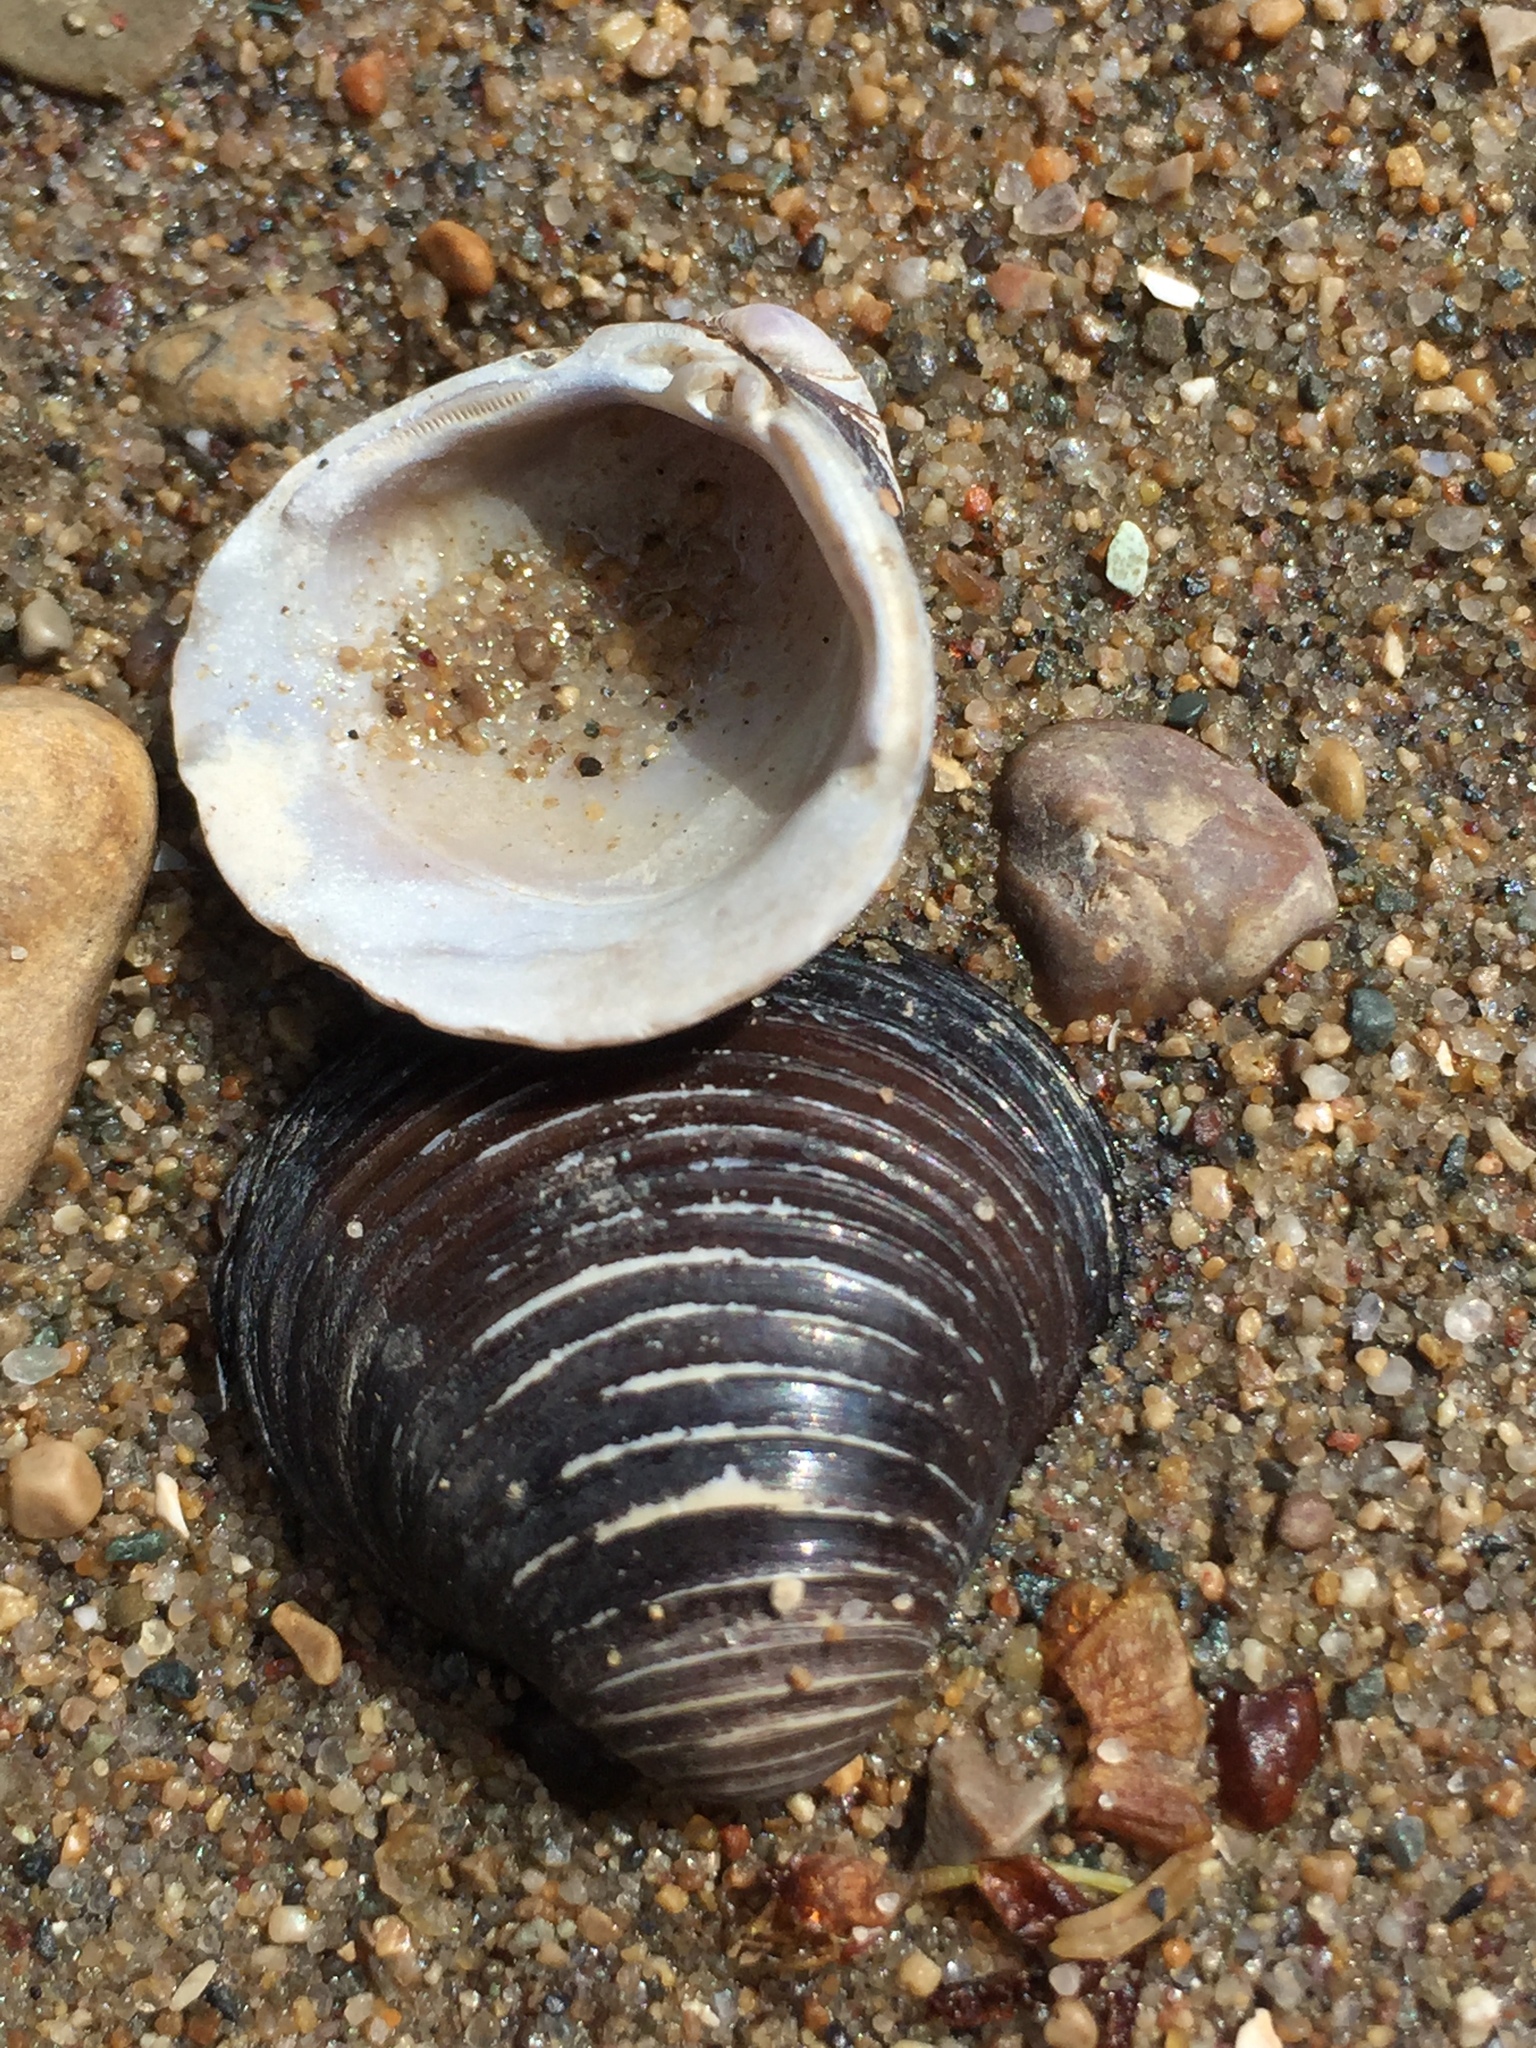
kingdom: Animalia
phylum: Mollusca
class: Bivalvia
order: Venerida
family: Cyrenidae
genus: Corbicula
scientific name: Corbicula fluminea
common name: Asian clam
